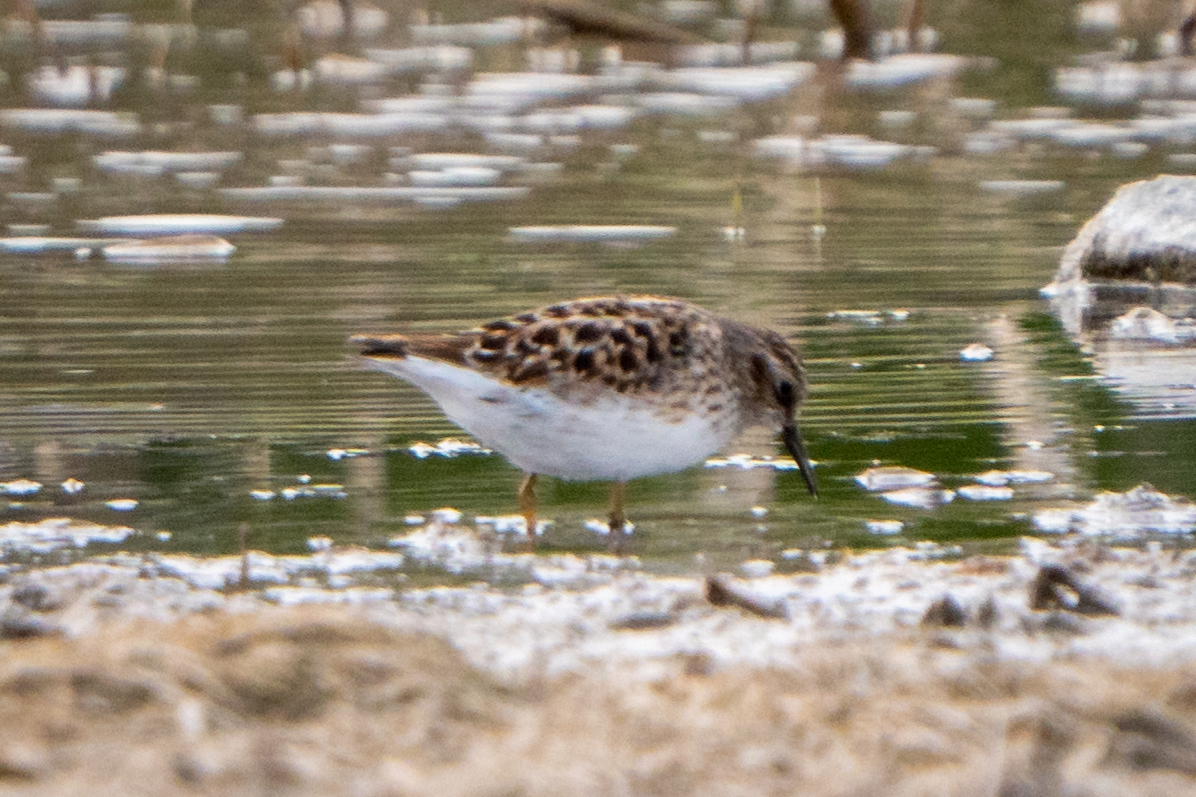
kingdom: Animalia
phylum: Chordata
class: Aves
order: Charadriiformes
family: Scolopacidae
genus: Calidris
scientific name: Calidris minutilla
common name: Least sandpiper
